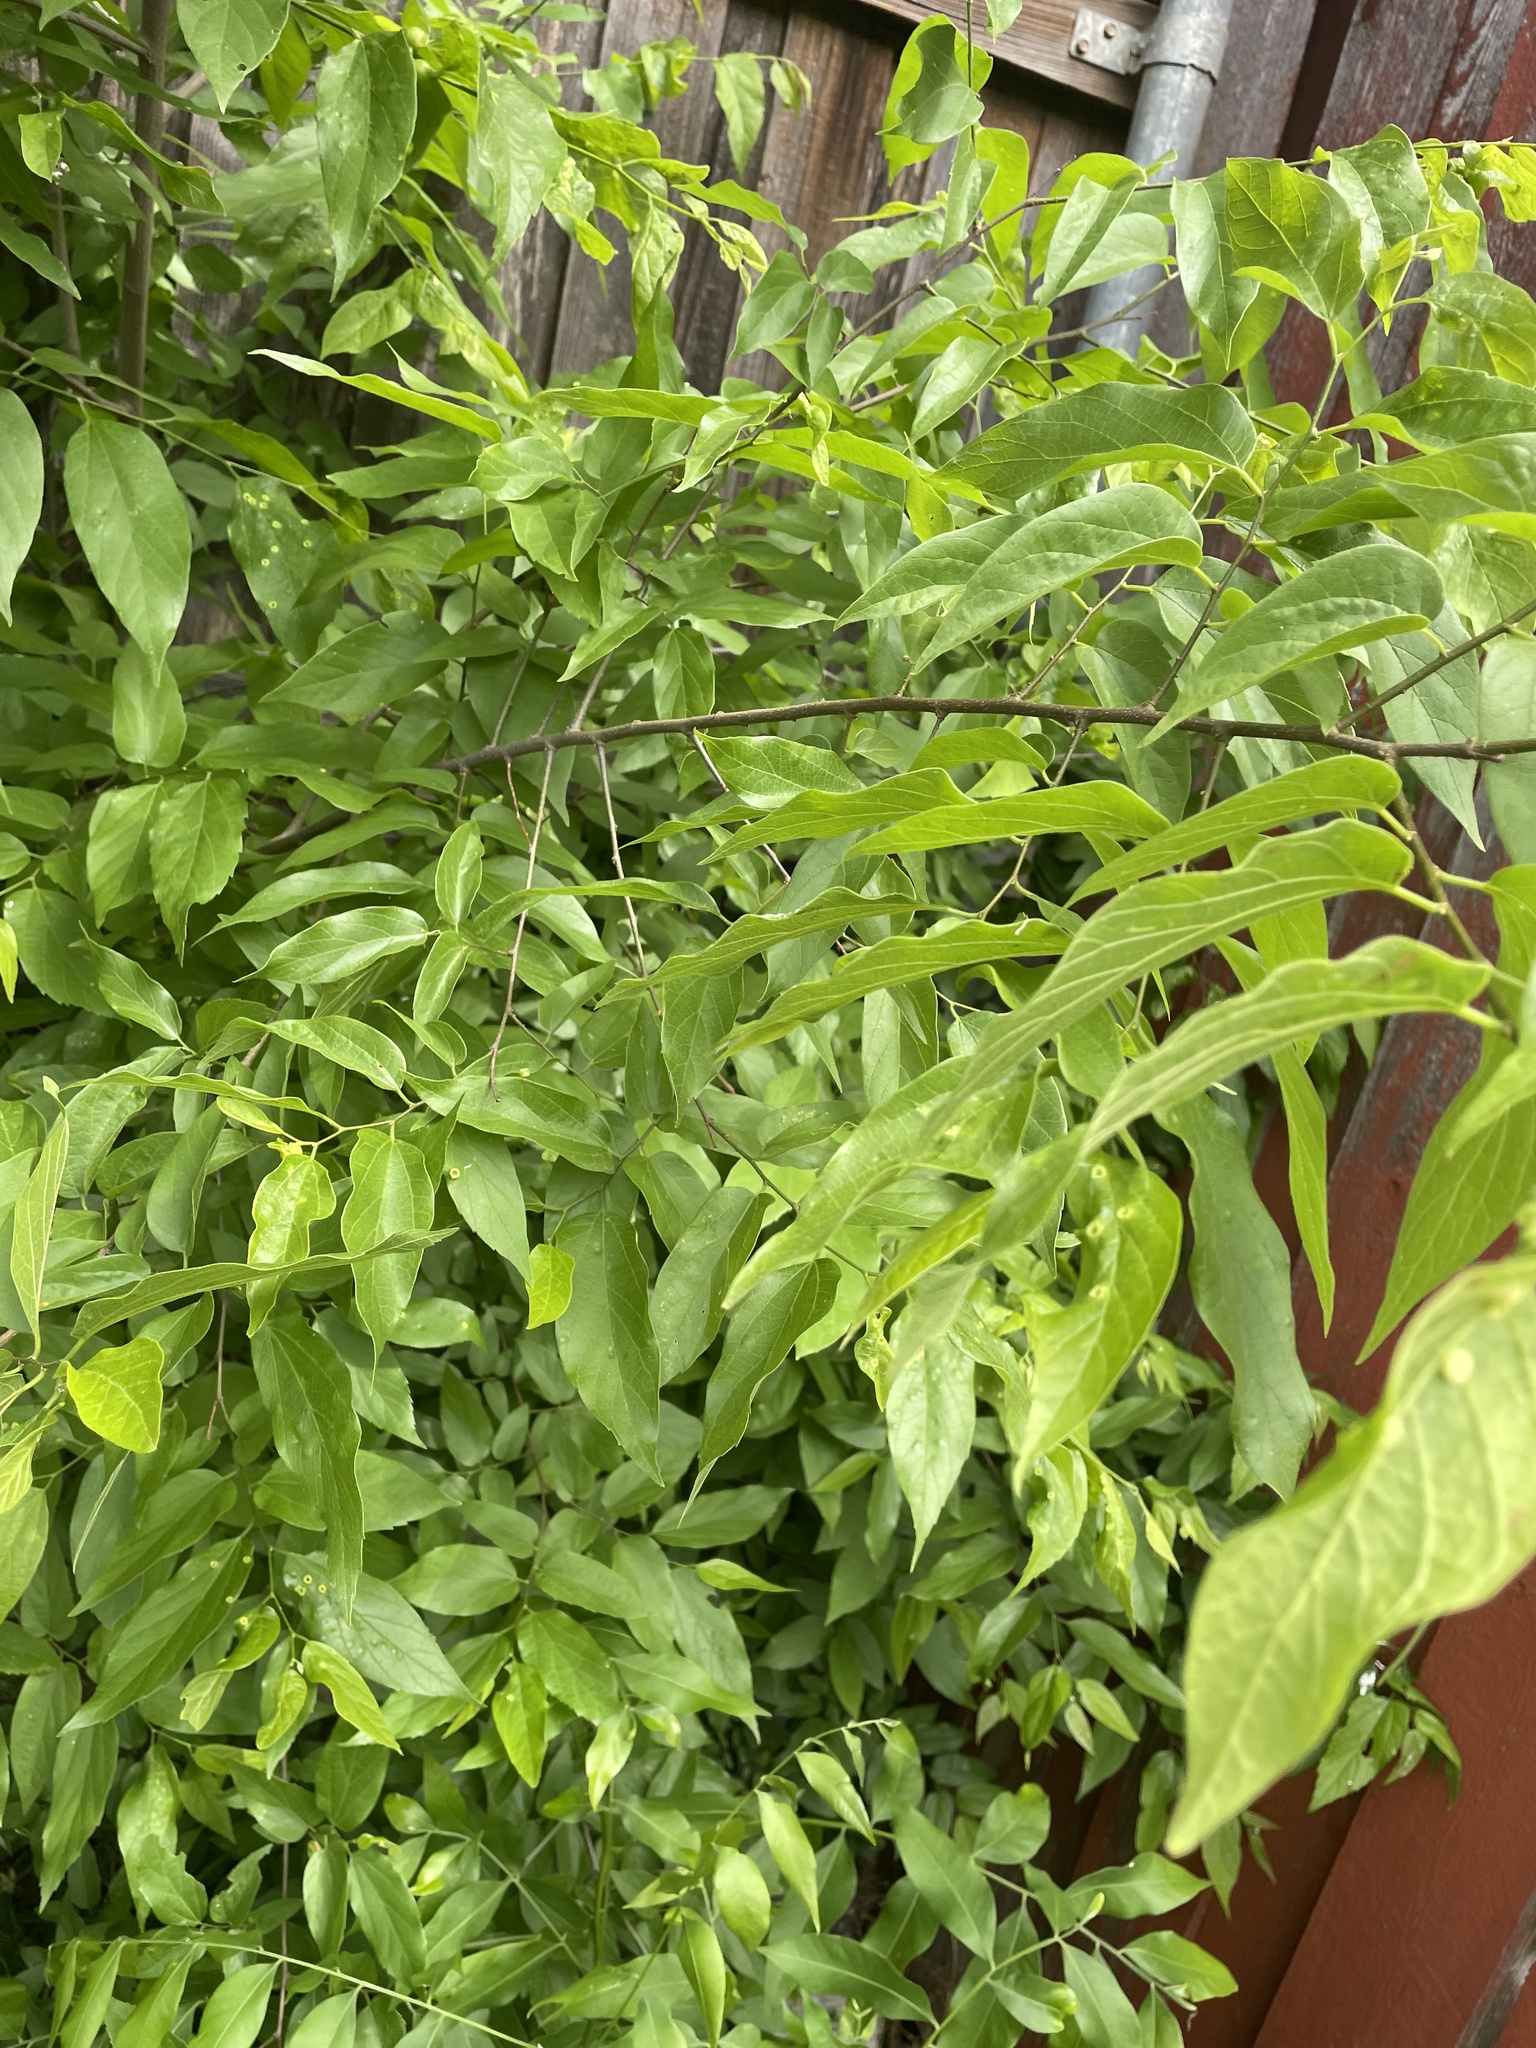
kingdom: Plantae
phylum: Tracheophyta
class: Magnoliopsida
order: Rosales
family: Cannabaceae
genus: Celtis
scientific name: Celtis laevigata
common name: Sugarberry
